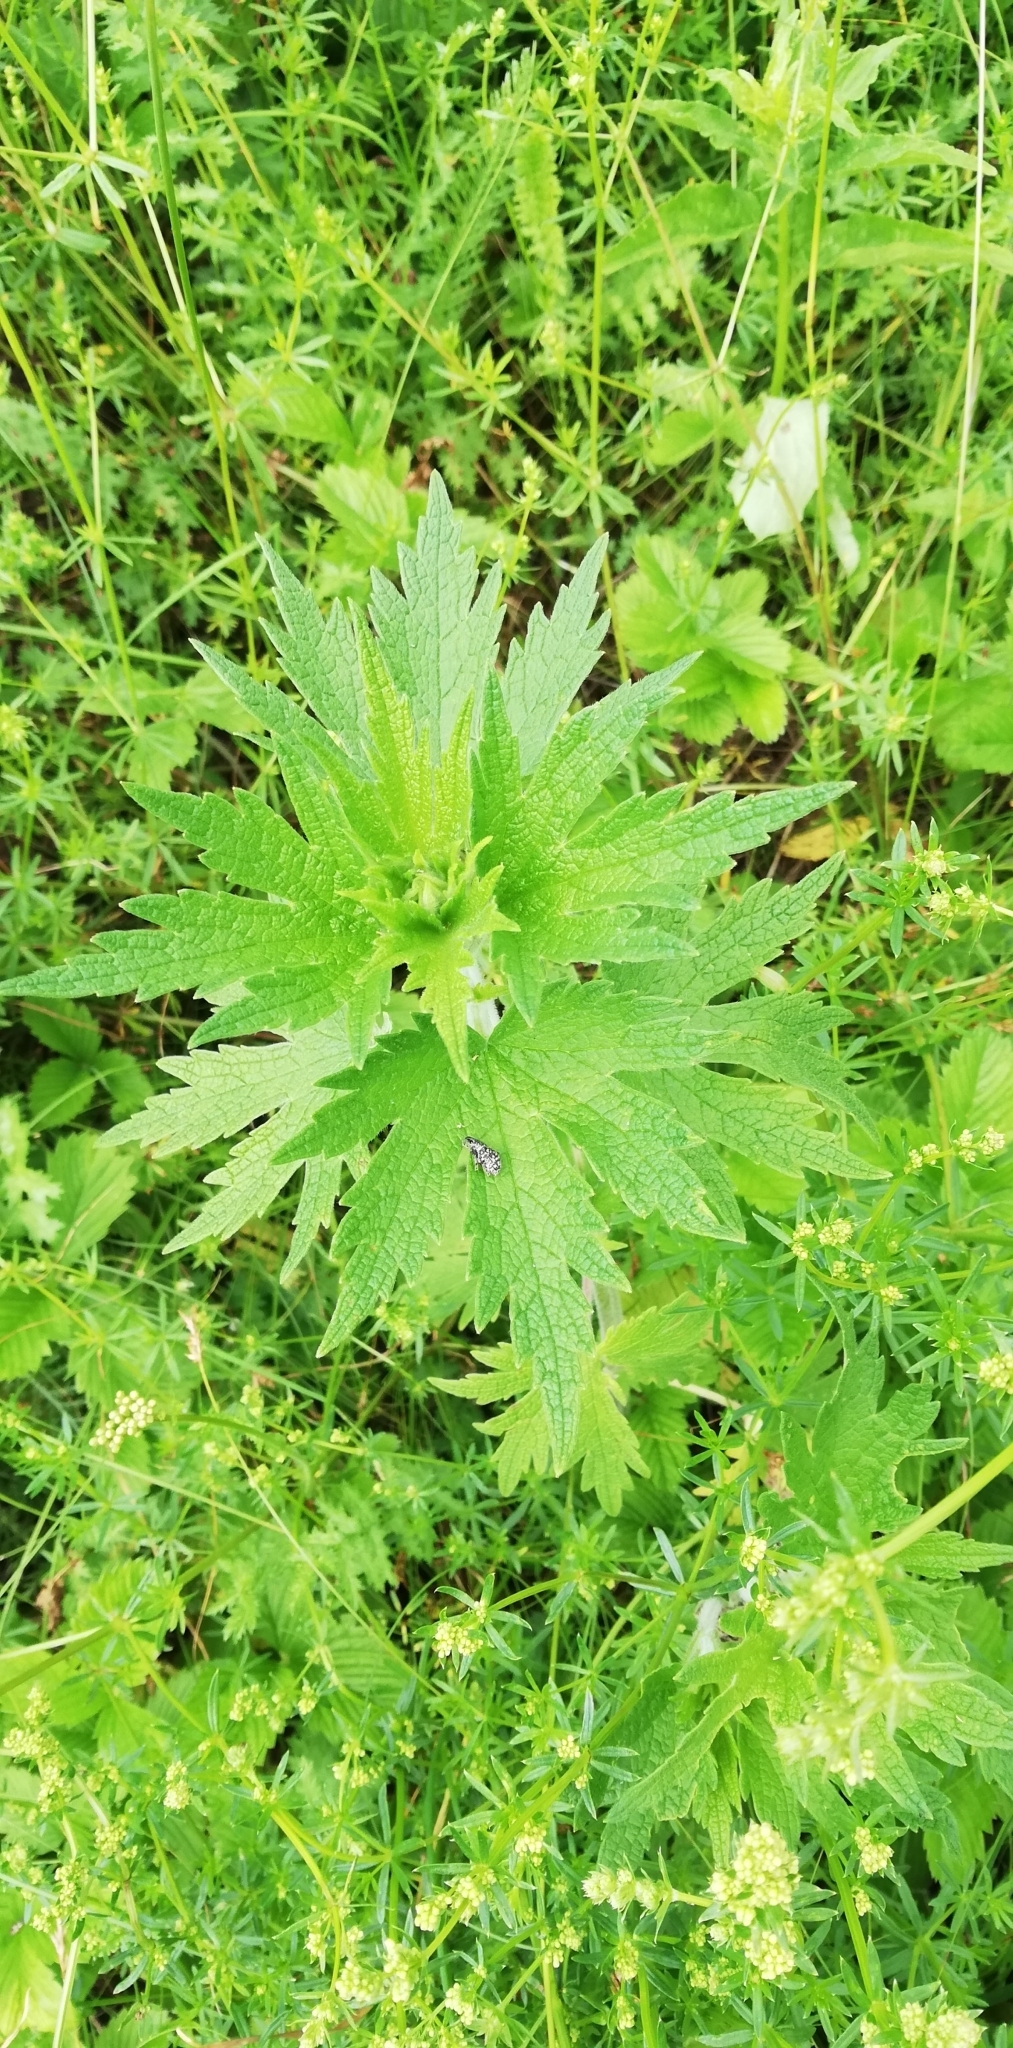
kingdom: Plantae
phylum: Tracheophyta
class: Magnoliopsida
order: Lamiales
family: Lamiaceae
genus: Leonurus
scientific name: Leonurus quinquelobatus
